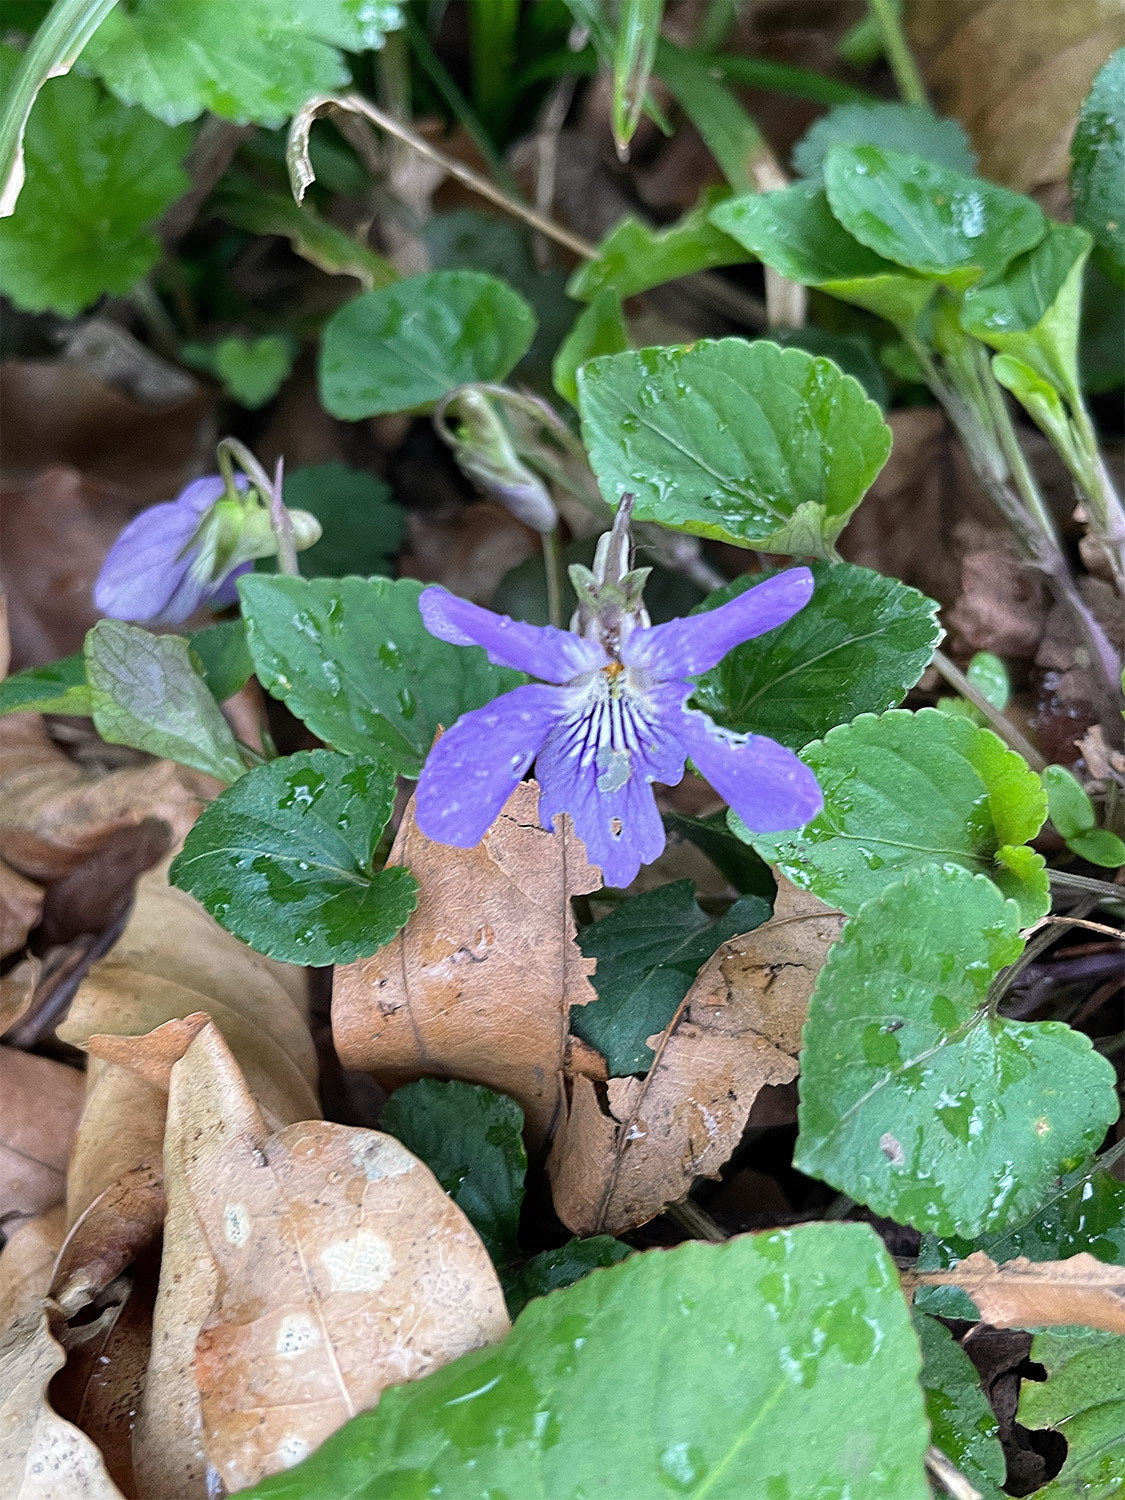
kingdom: Plantae
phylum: Tracheophyta
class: Magnoliopsida
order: Malpighiales
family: Violaceae
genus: Viola
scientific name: Viola riviniana
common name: Common dog-violet
